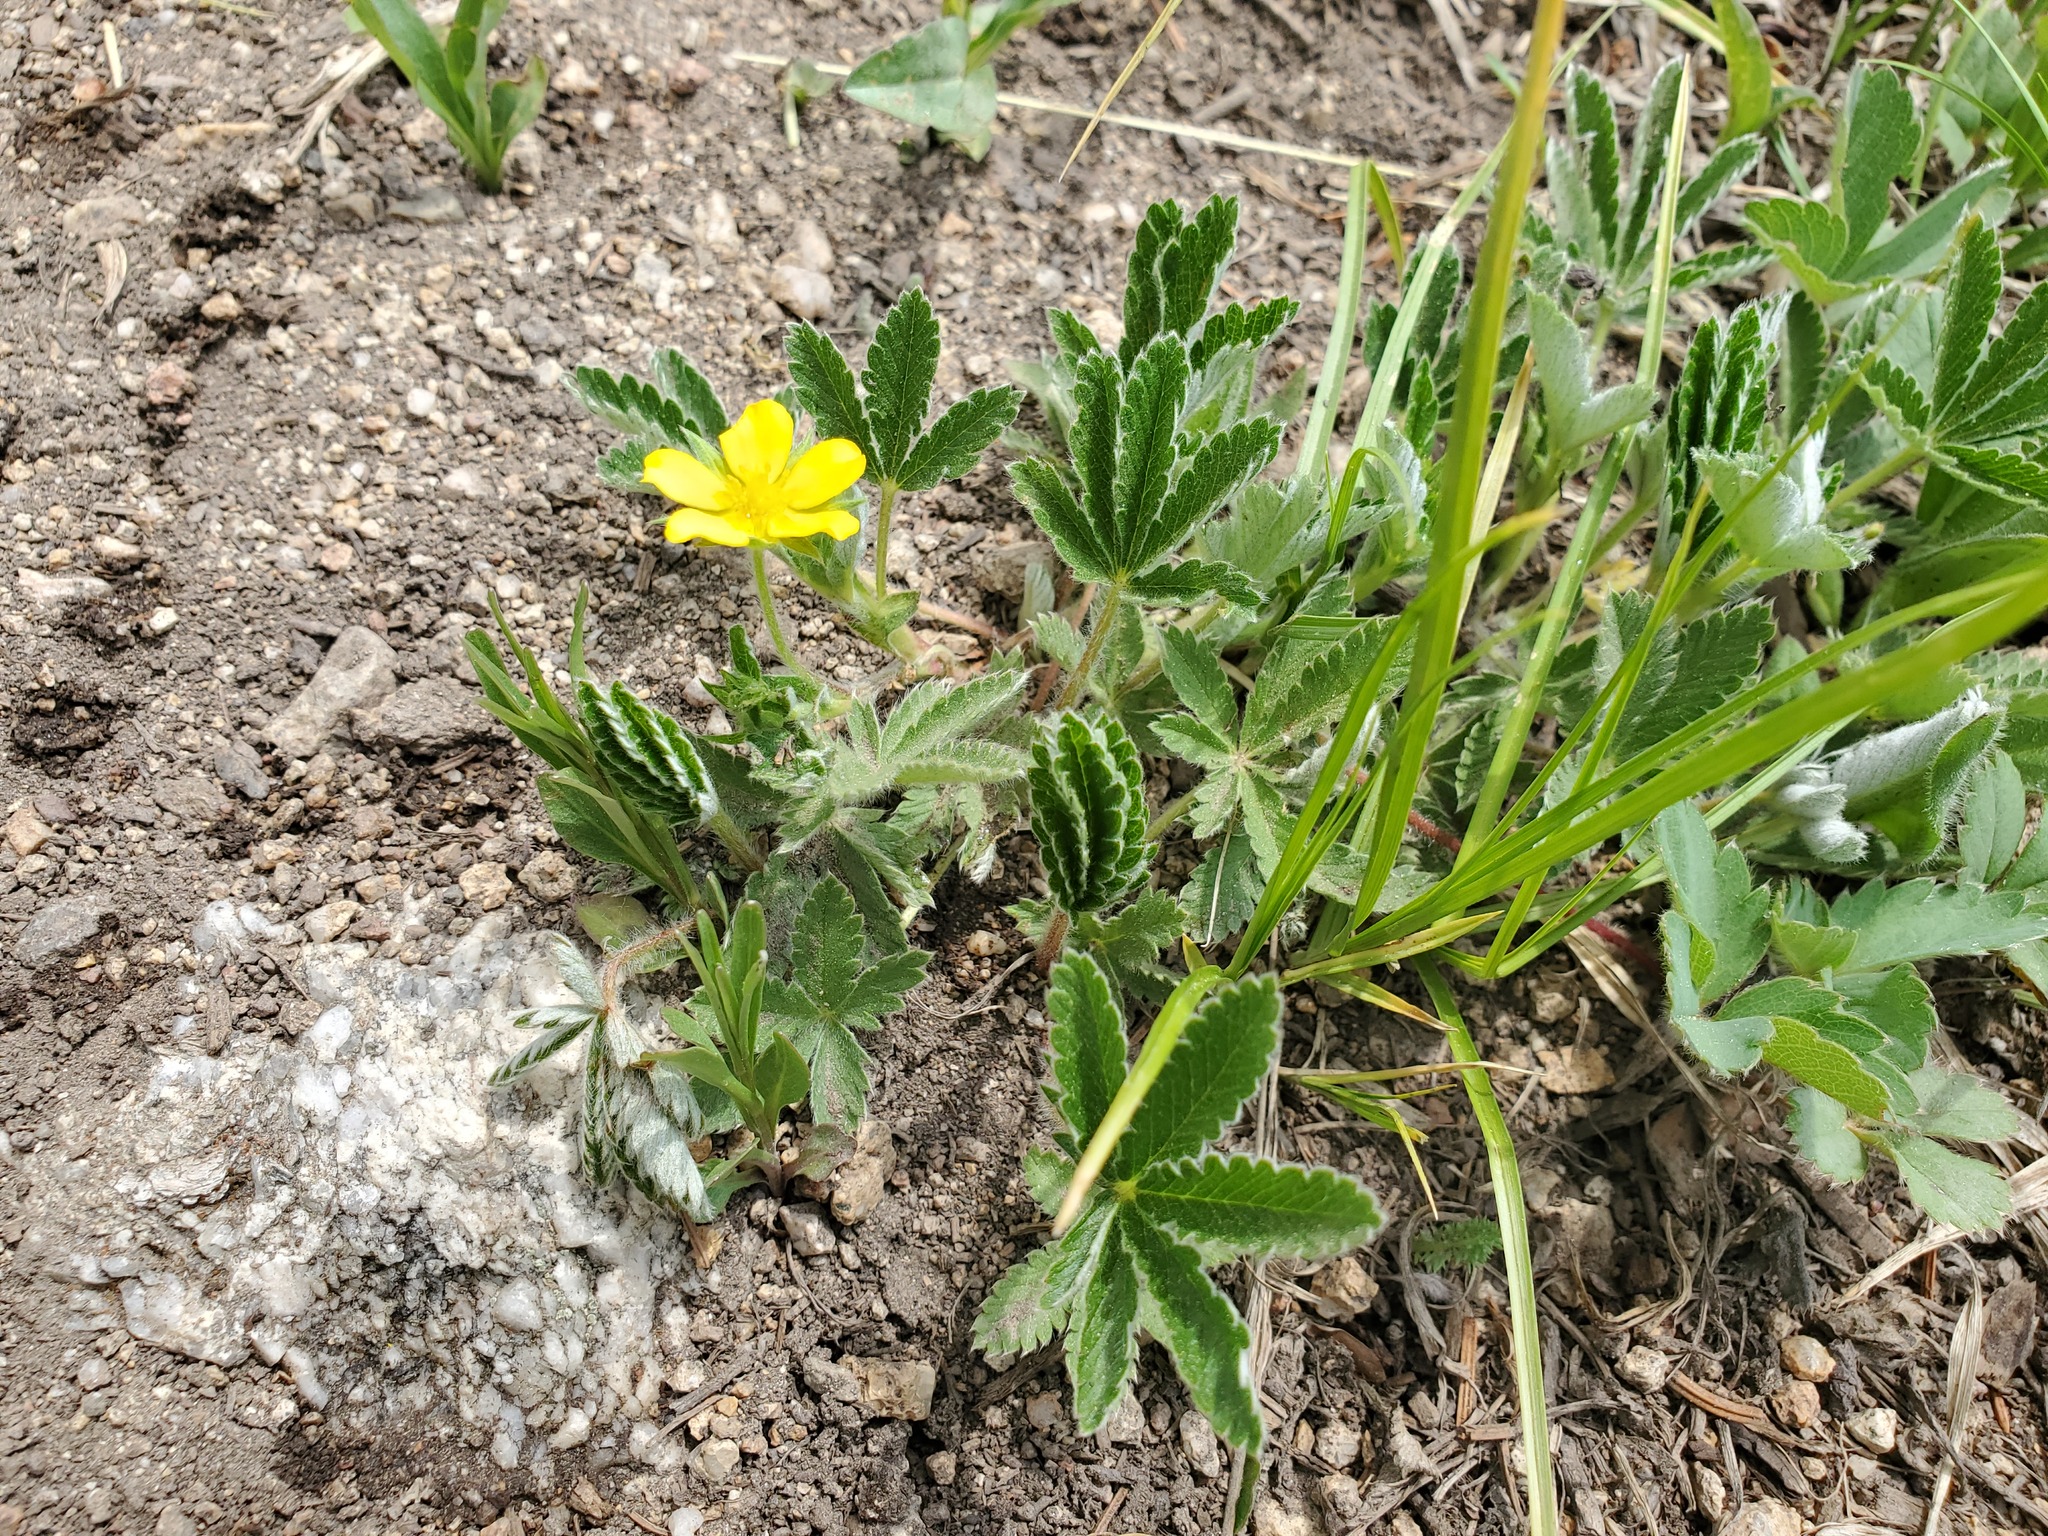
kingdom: Plantae
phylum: Tracheophyta
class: Magnoliopsida
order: Rosales
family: Rosaceae
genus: Potentilla
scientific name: Potentilla pulcherrima
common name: Beautiful cinquefoil
